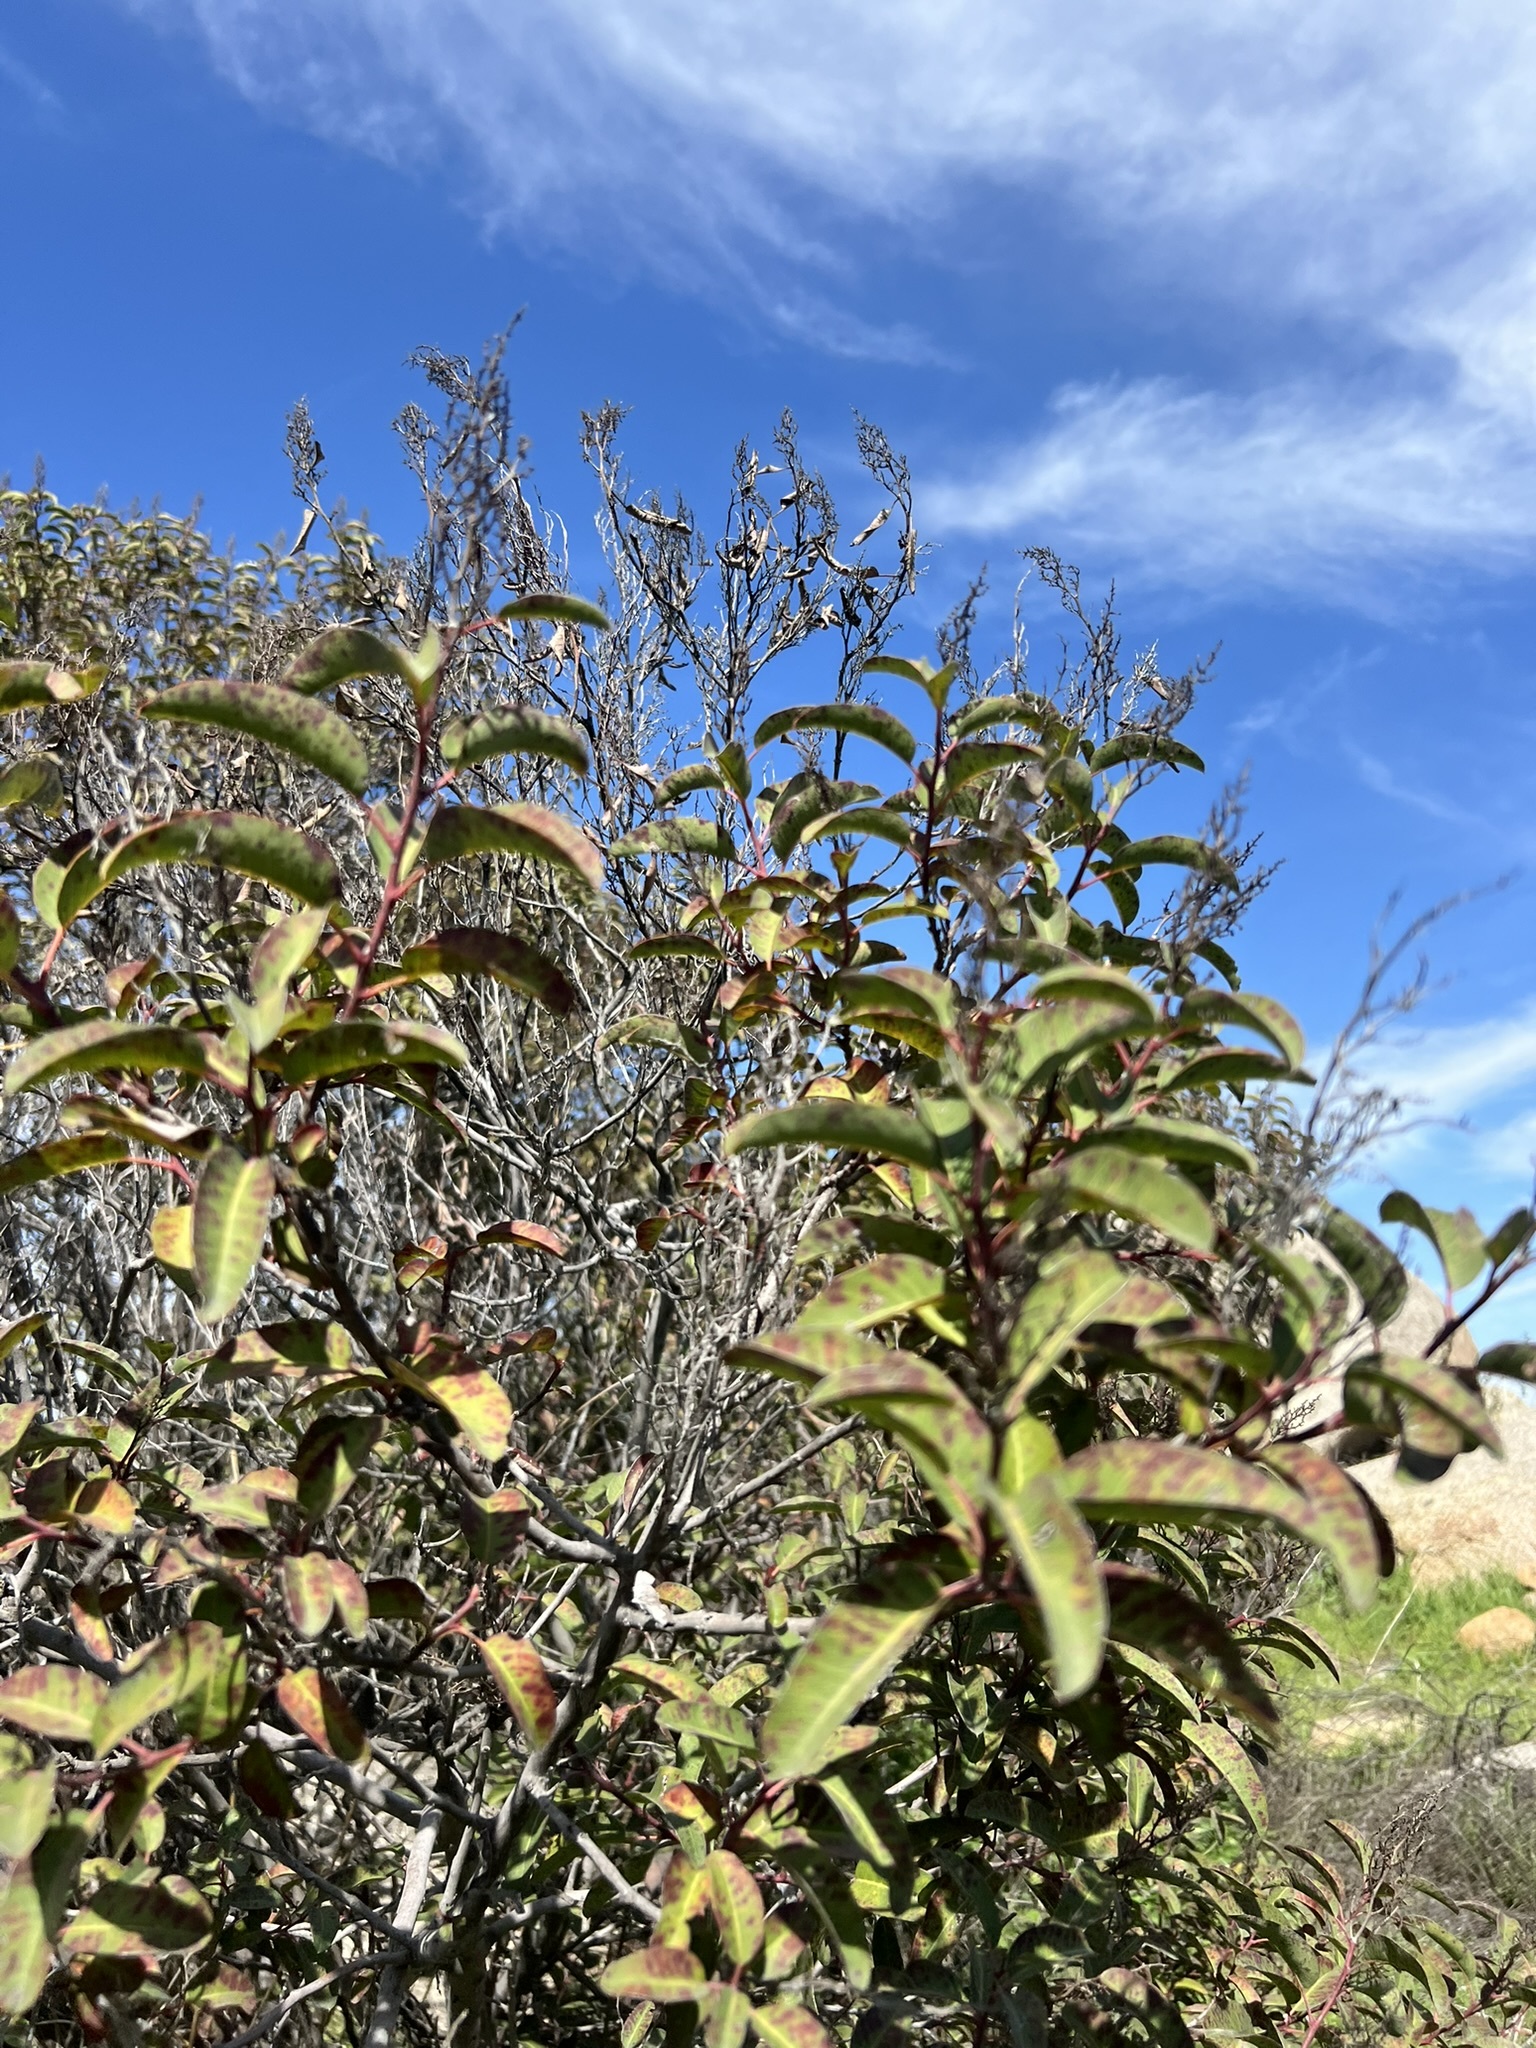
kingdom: Plantae
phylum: Tracheophyta
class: Magnoliopsida
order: Sapindales
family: Anacardiaceae
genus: Malosma
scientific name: Malosma laurina
